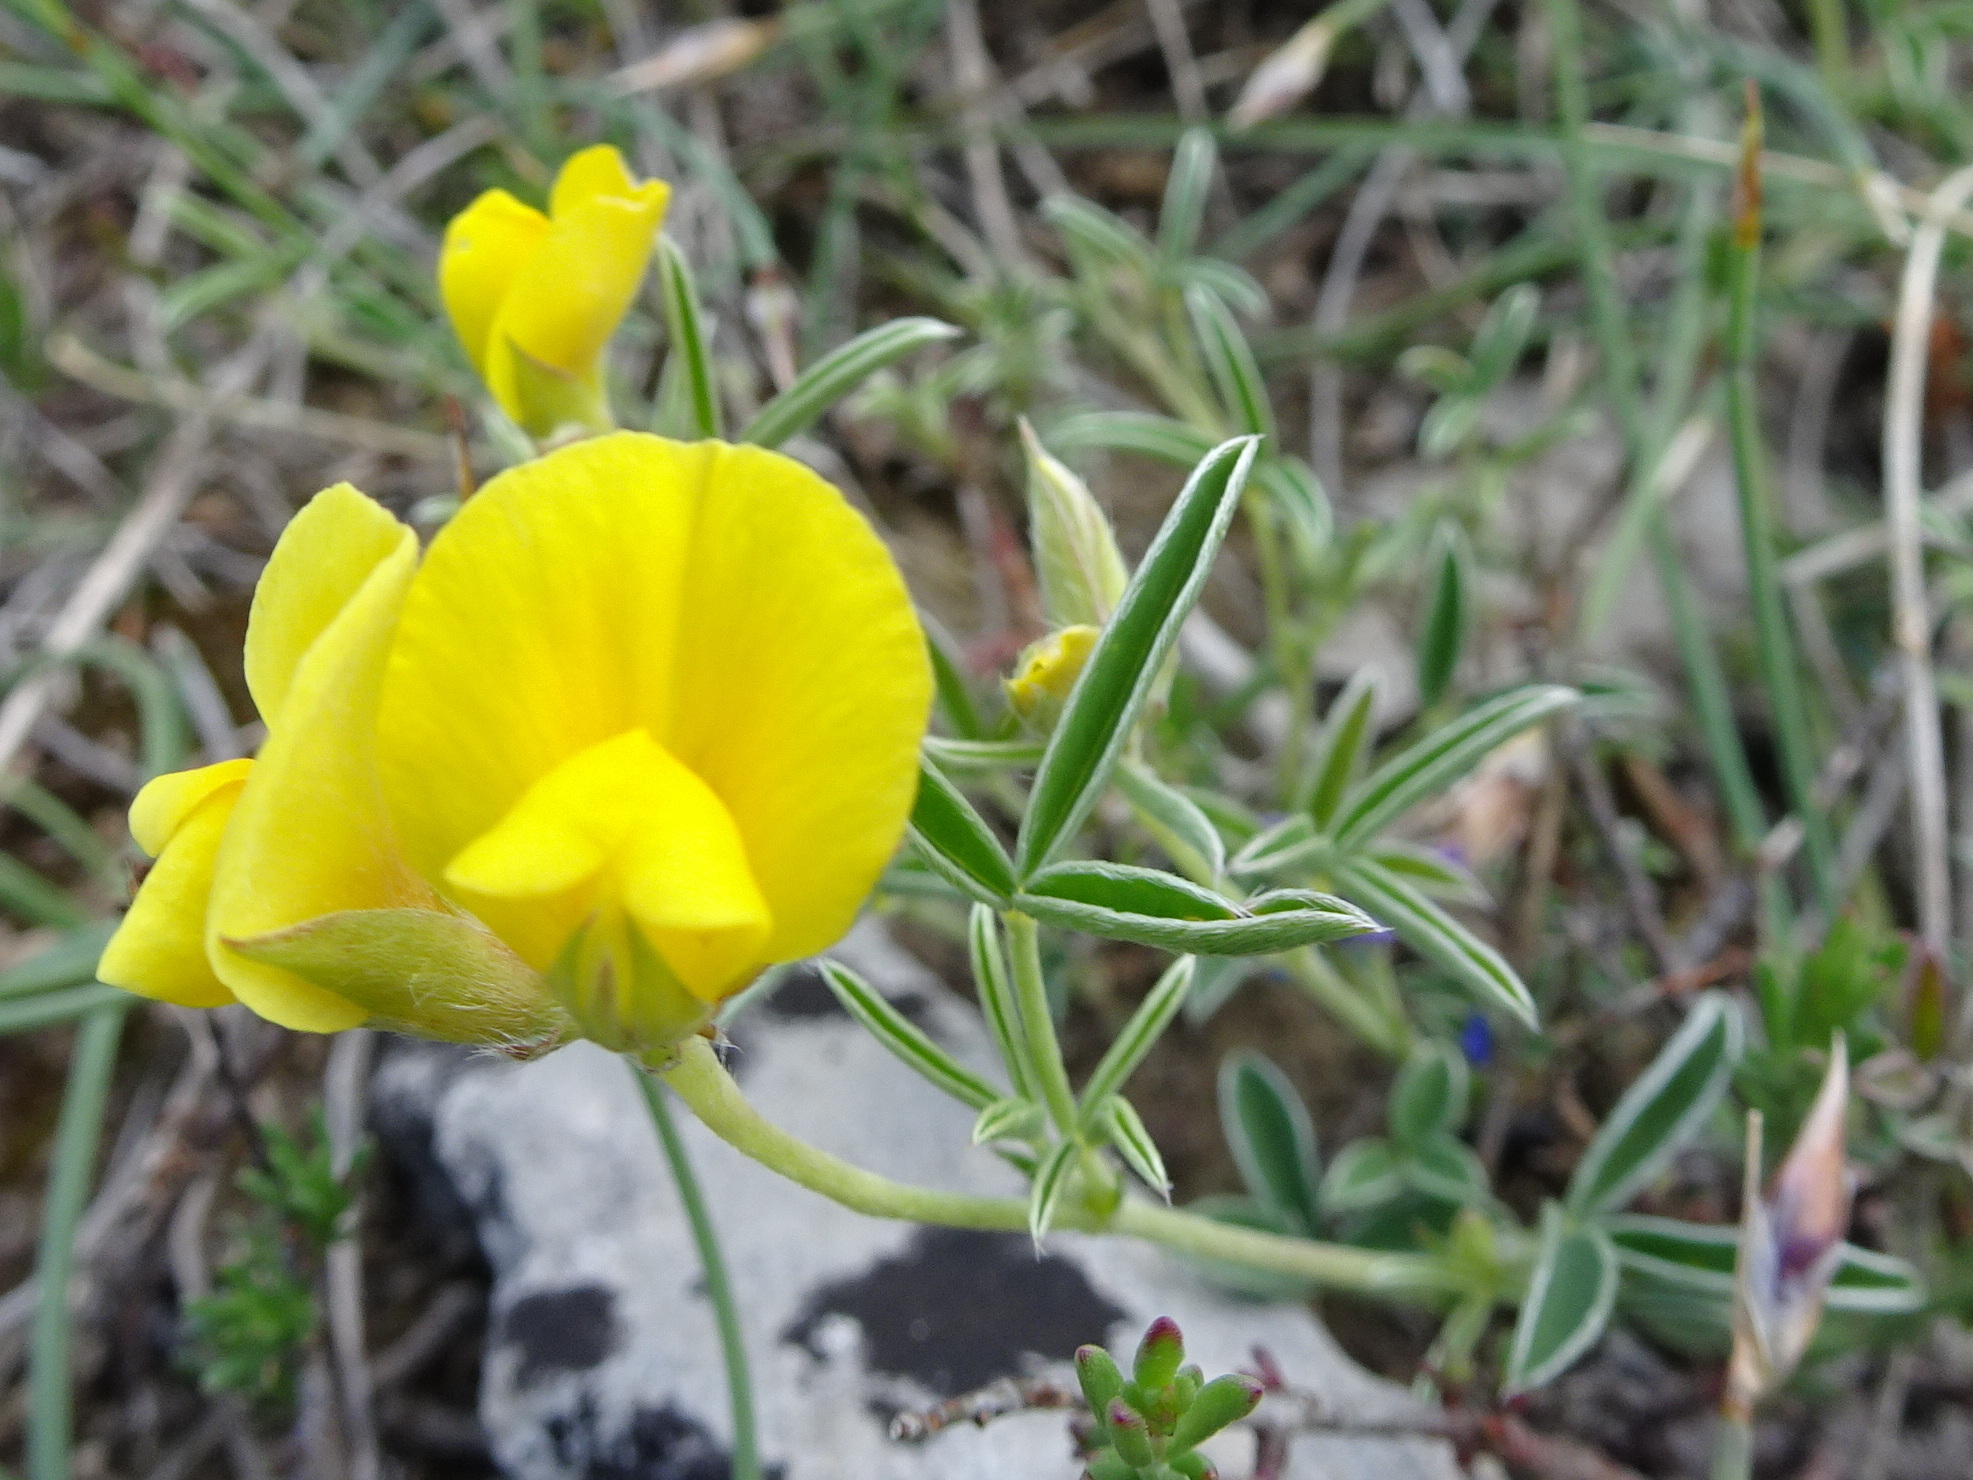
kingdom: Plantae
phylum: Tracheophyta
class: Magnoliopsida
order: Fabales
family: Fabaceae
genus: Argyrolobium
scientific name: Argyrolobium zanonii
